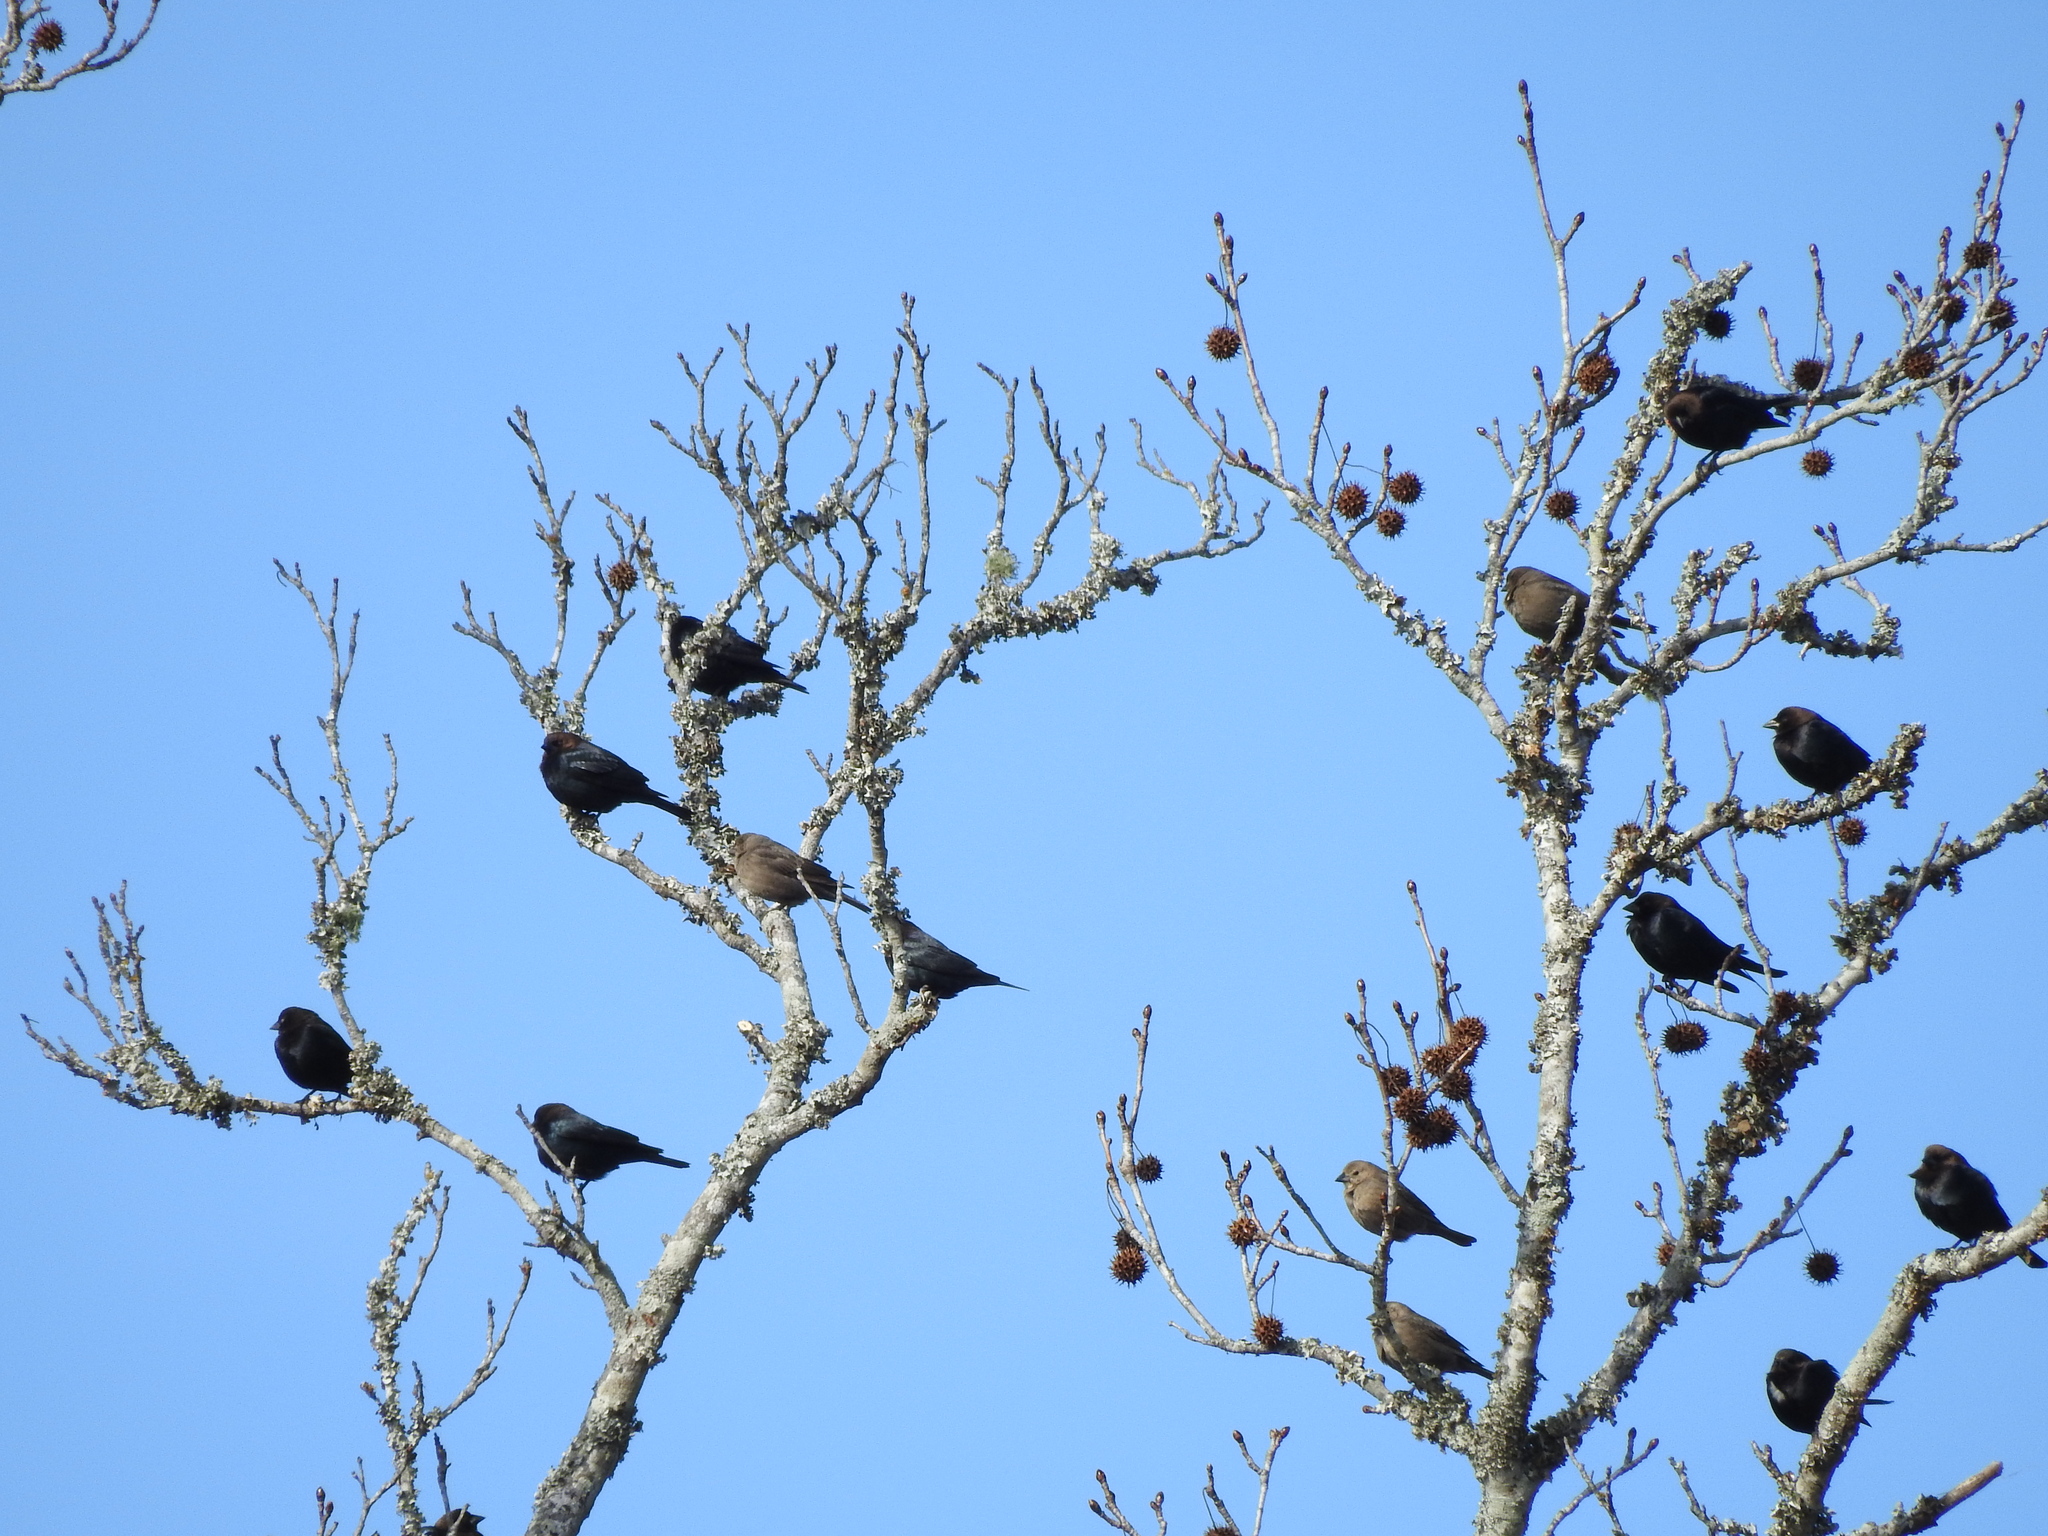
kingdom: Animalia
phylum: Chordata
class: Aves
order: Passeriformes
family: Icteridae
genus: Molothrus
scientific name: Molothrus ater
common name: Brown-headed cowbird
